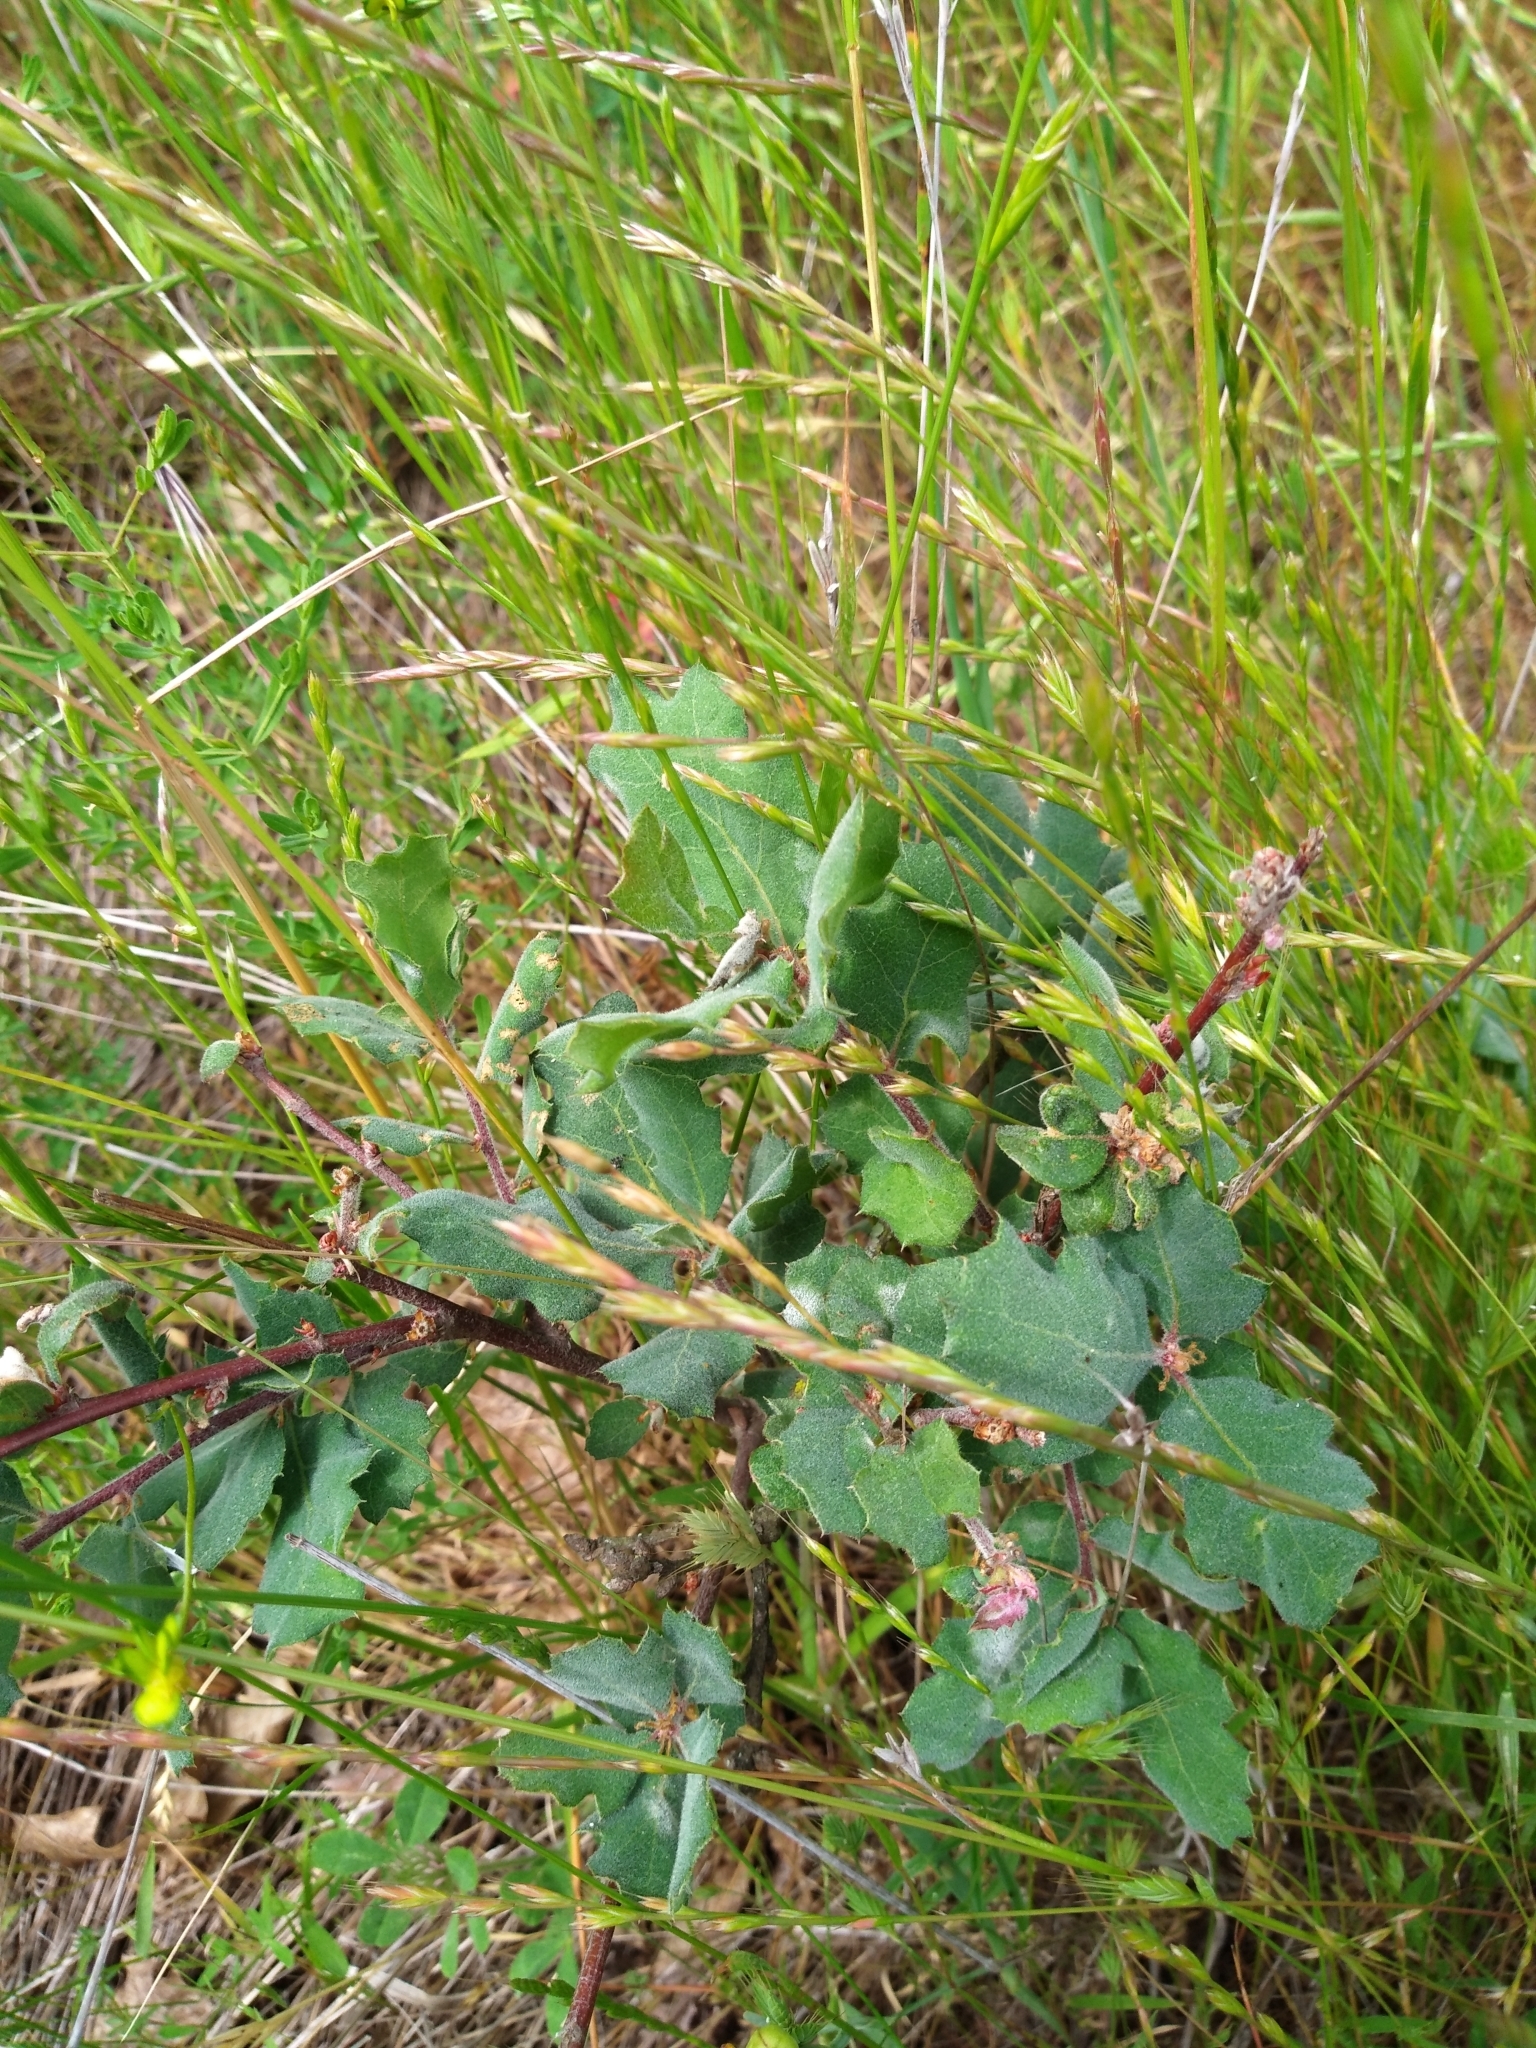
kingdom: Plantae
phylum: Tracheophyta
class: Magnoliopsida
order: Fagales
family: Fagaceae
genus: Quercus
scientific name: Quercus agrifolia
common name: California live oak
